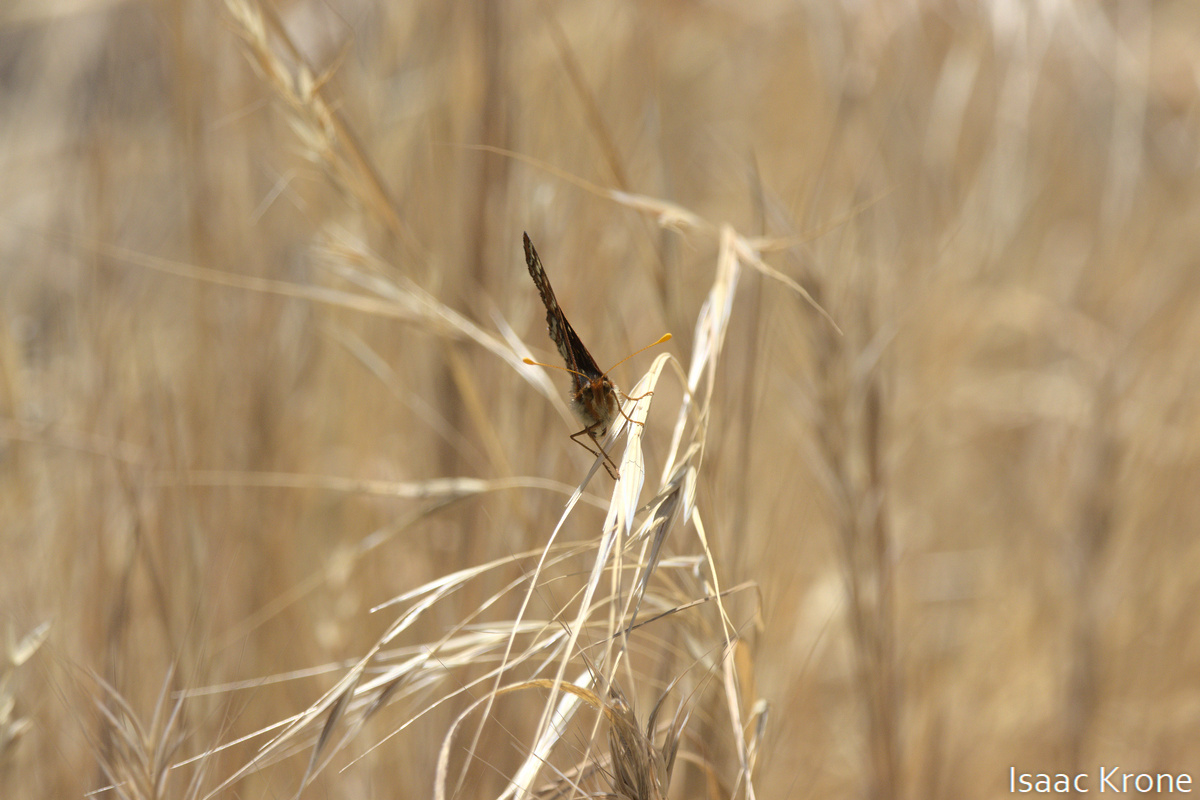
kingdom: Animalia
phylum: Arthropoda
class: Insecta
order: Lepidoptera
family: Nymphalidae
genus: Occidryas
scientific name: Occidryas chalcedona
